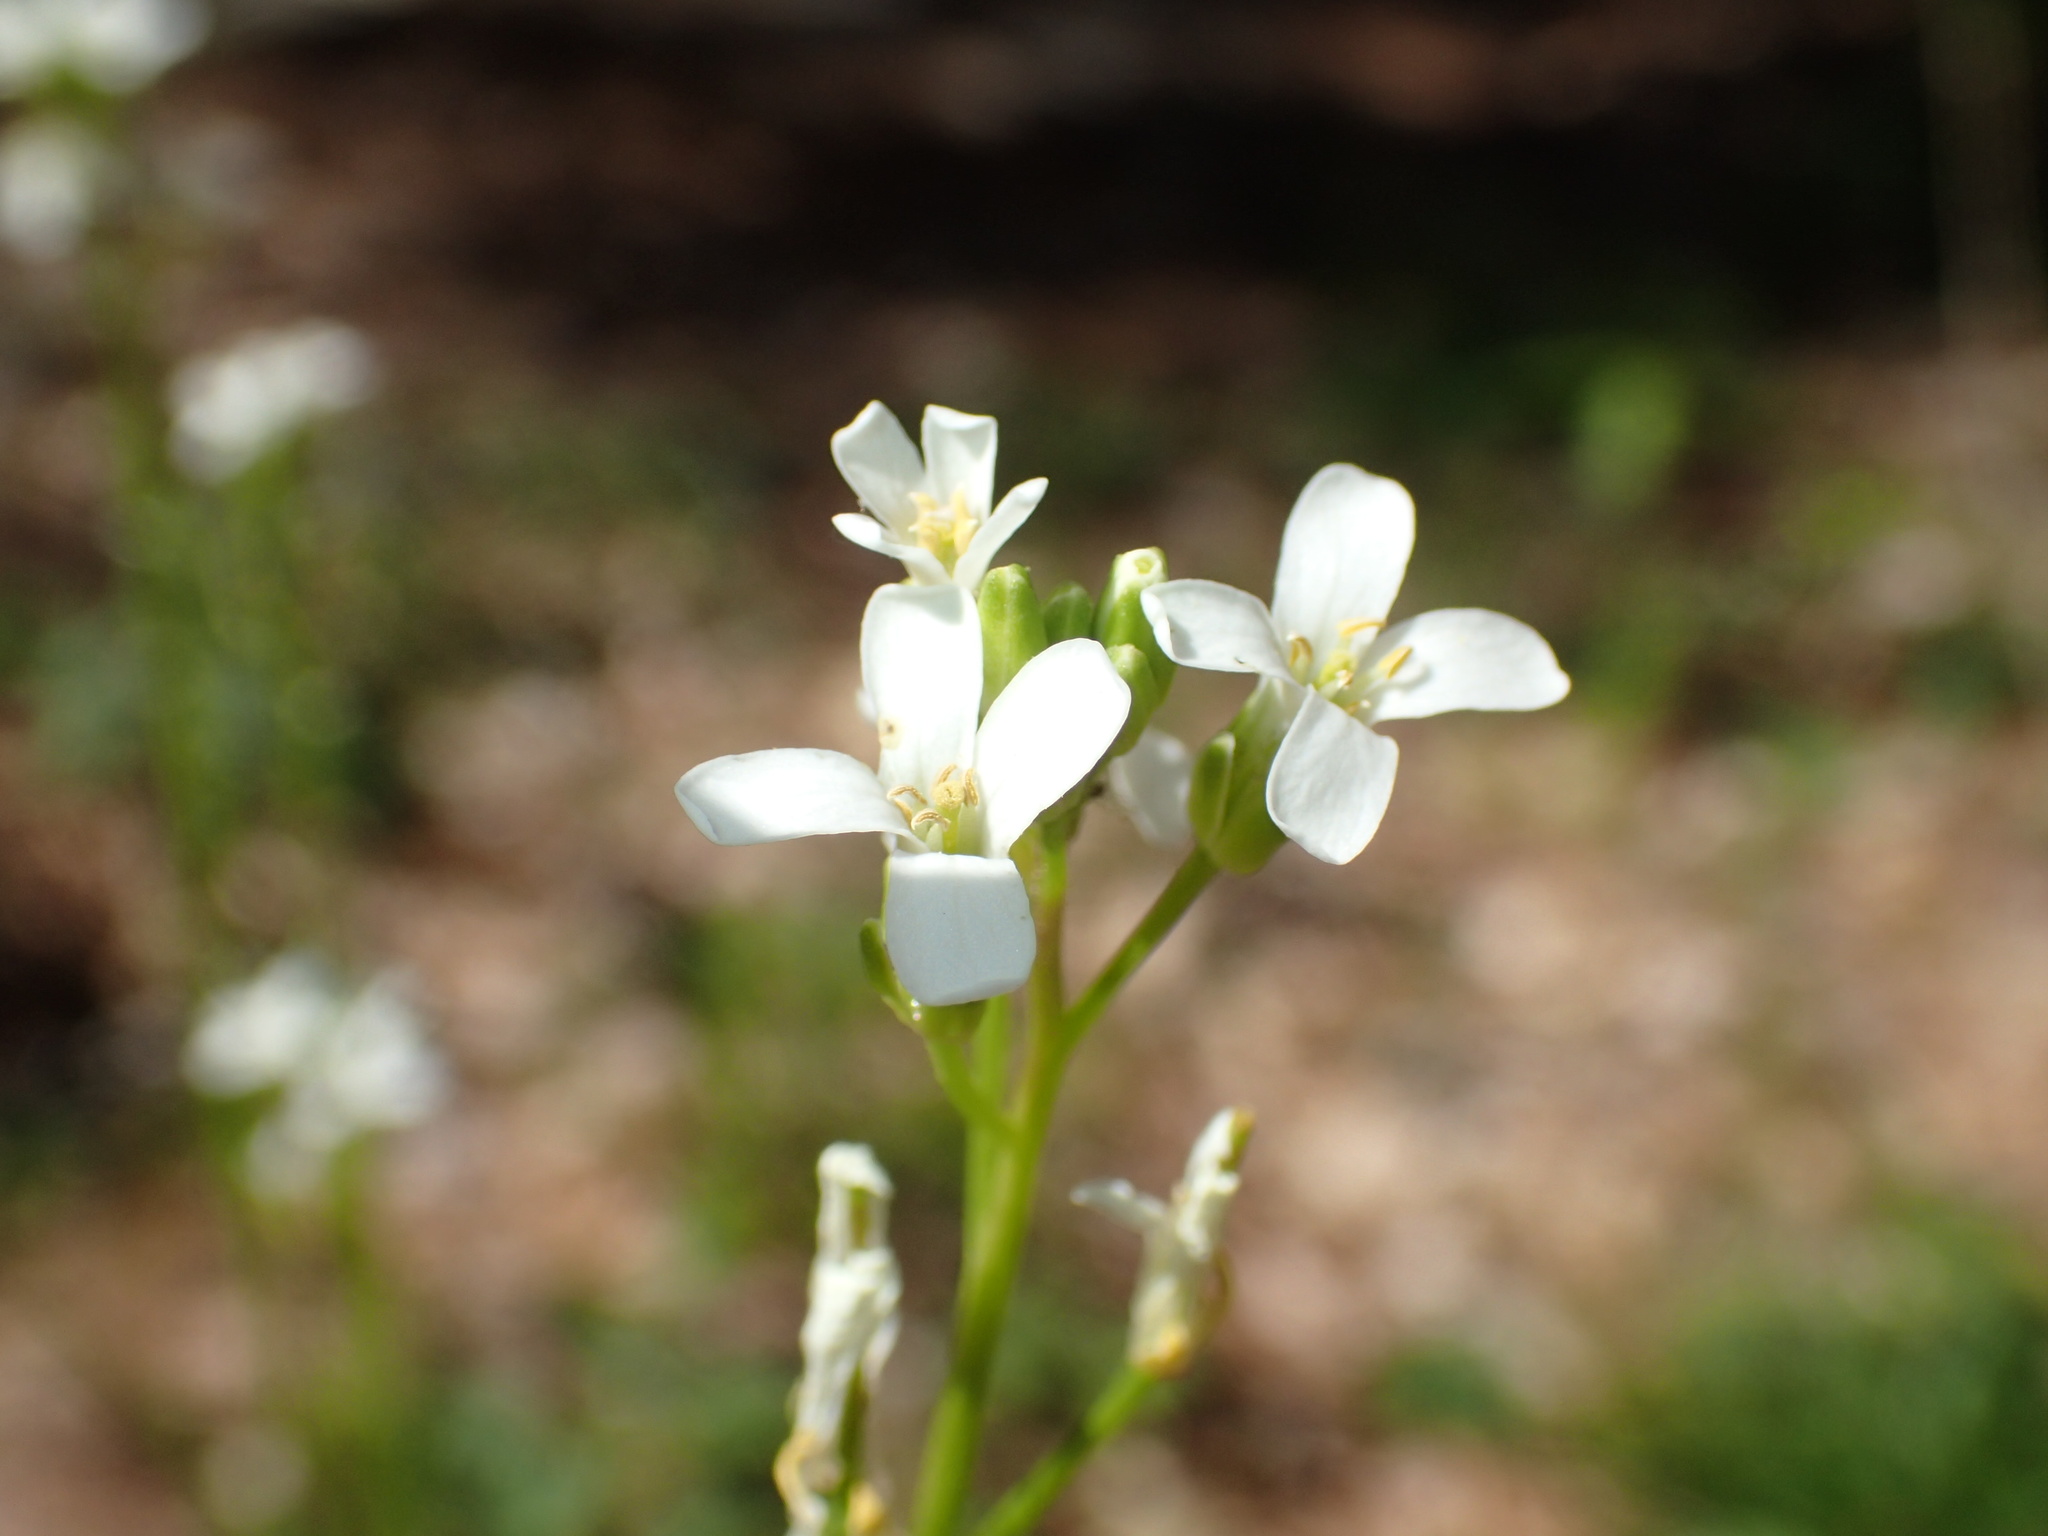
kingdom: Plantae
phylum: Tracheophyta
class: Magnoliopsida
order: Brassicales
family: Brassicaceae
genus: Cardamine
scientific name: Cardamine bulbosa
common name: Spring cress
